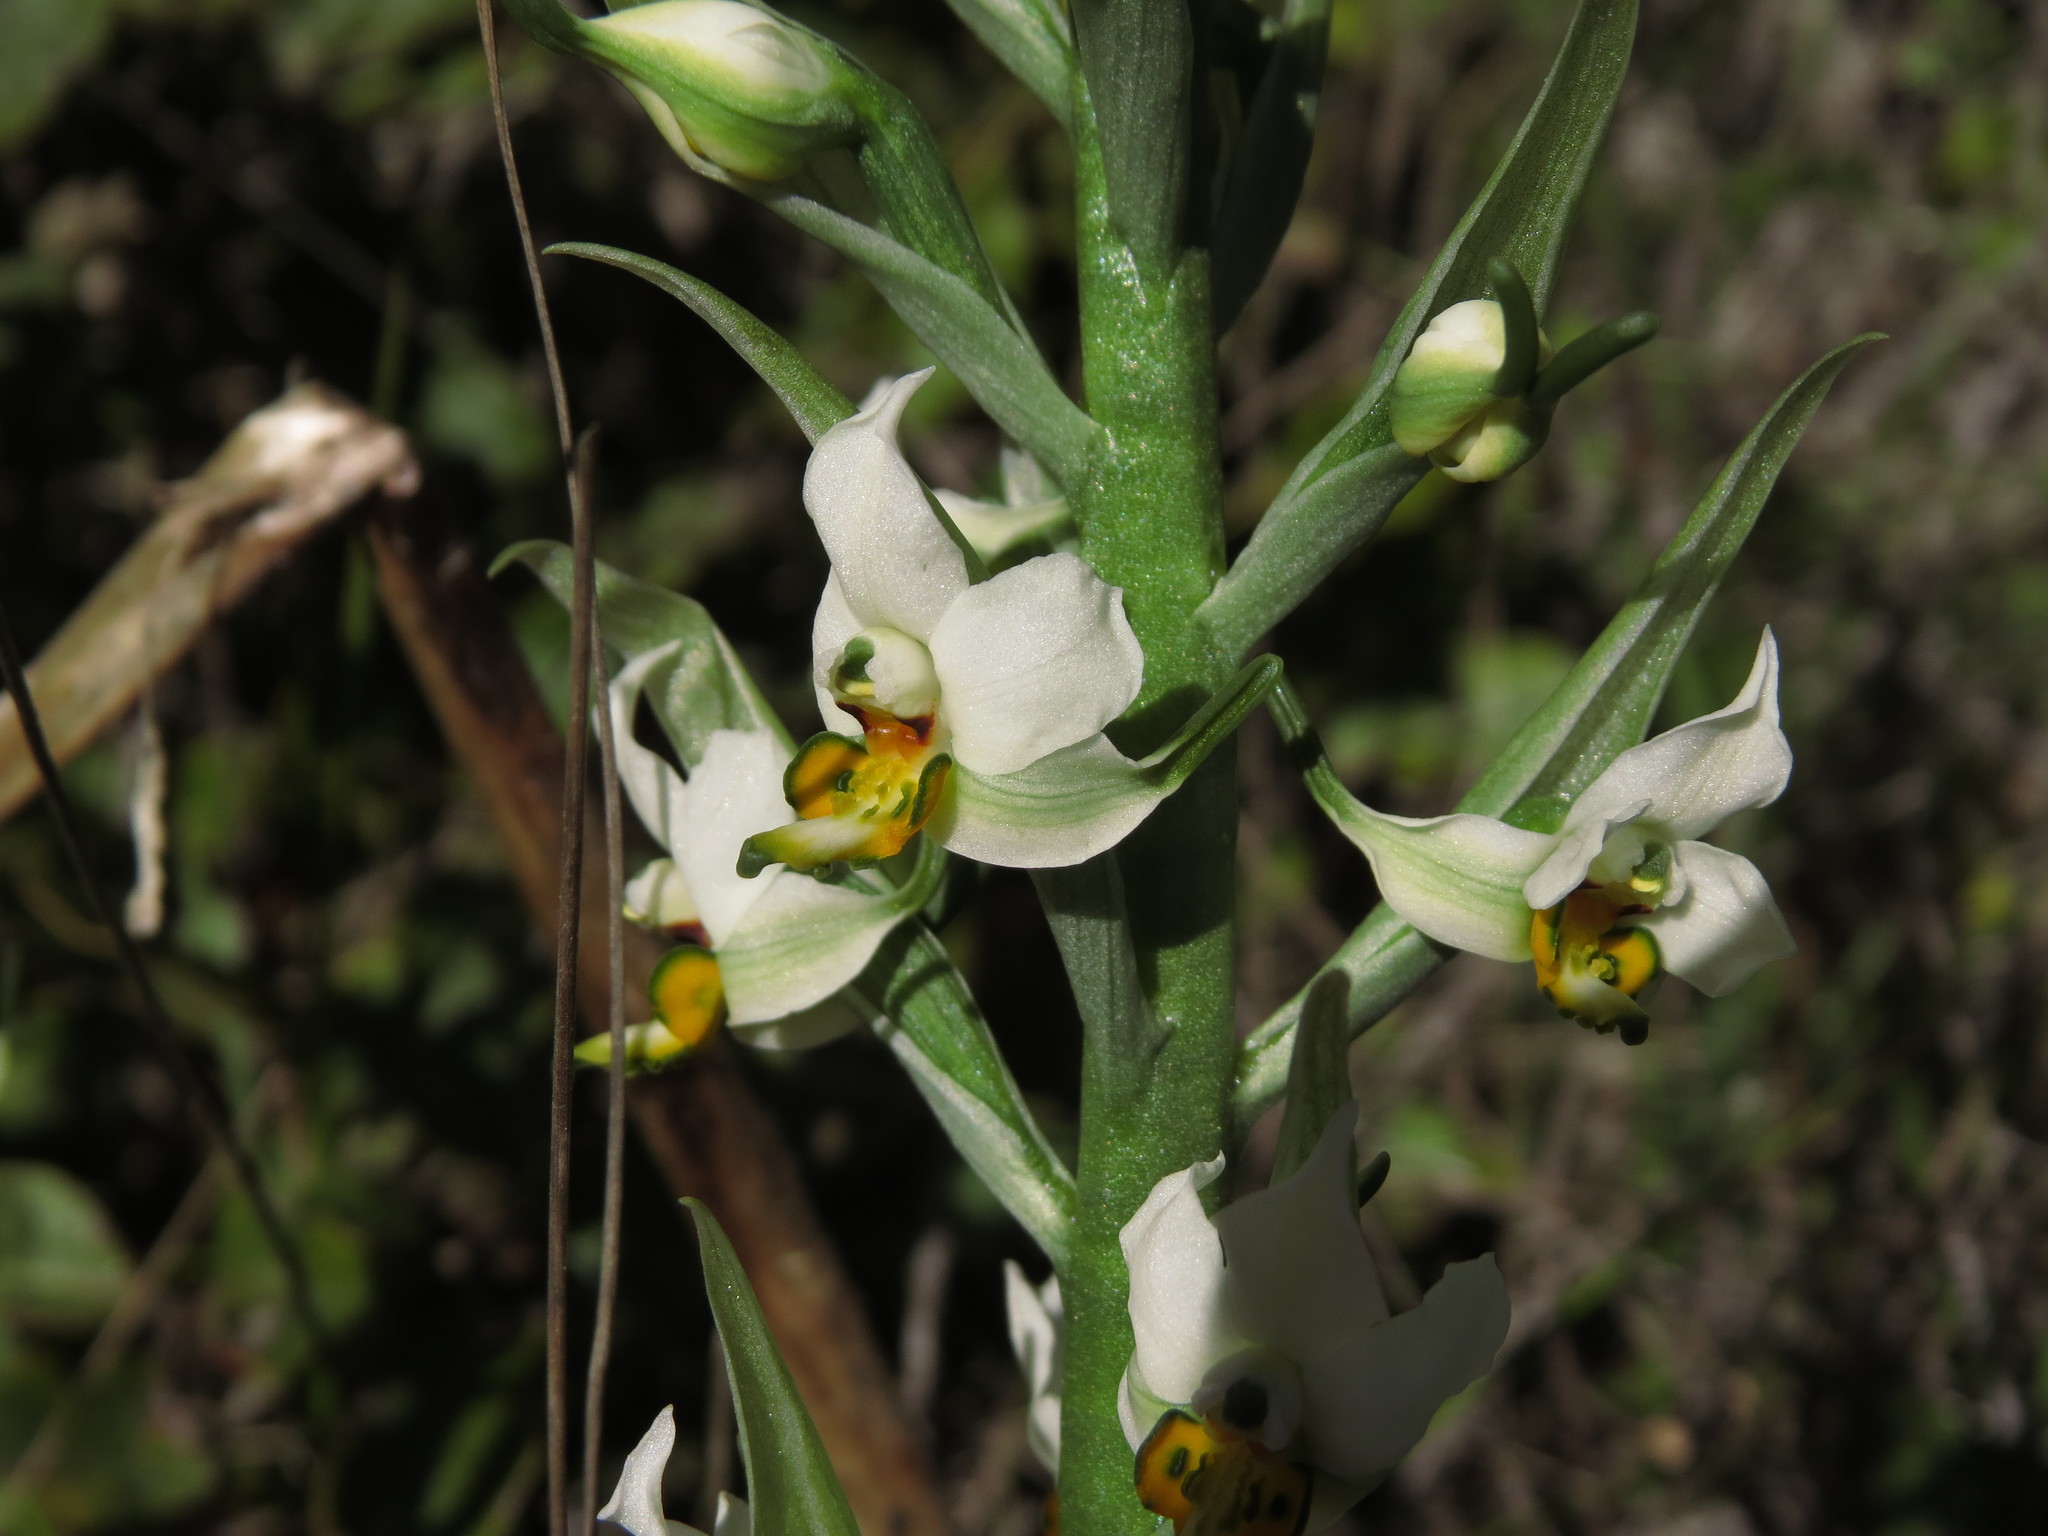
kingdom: Plantae
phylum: Tracheophyta
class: Liliopsida
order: Asparagales
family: Orchidaceae
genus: Gavilea
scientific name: Gavilea longibracteata
